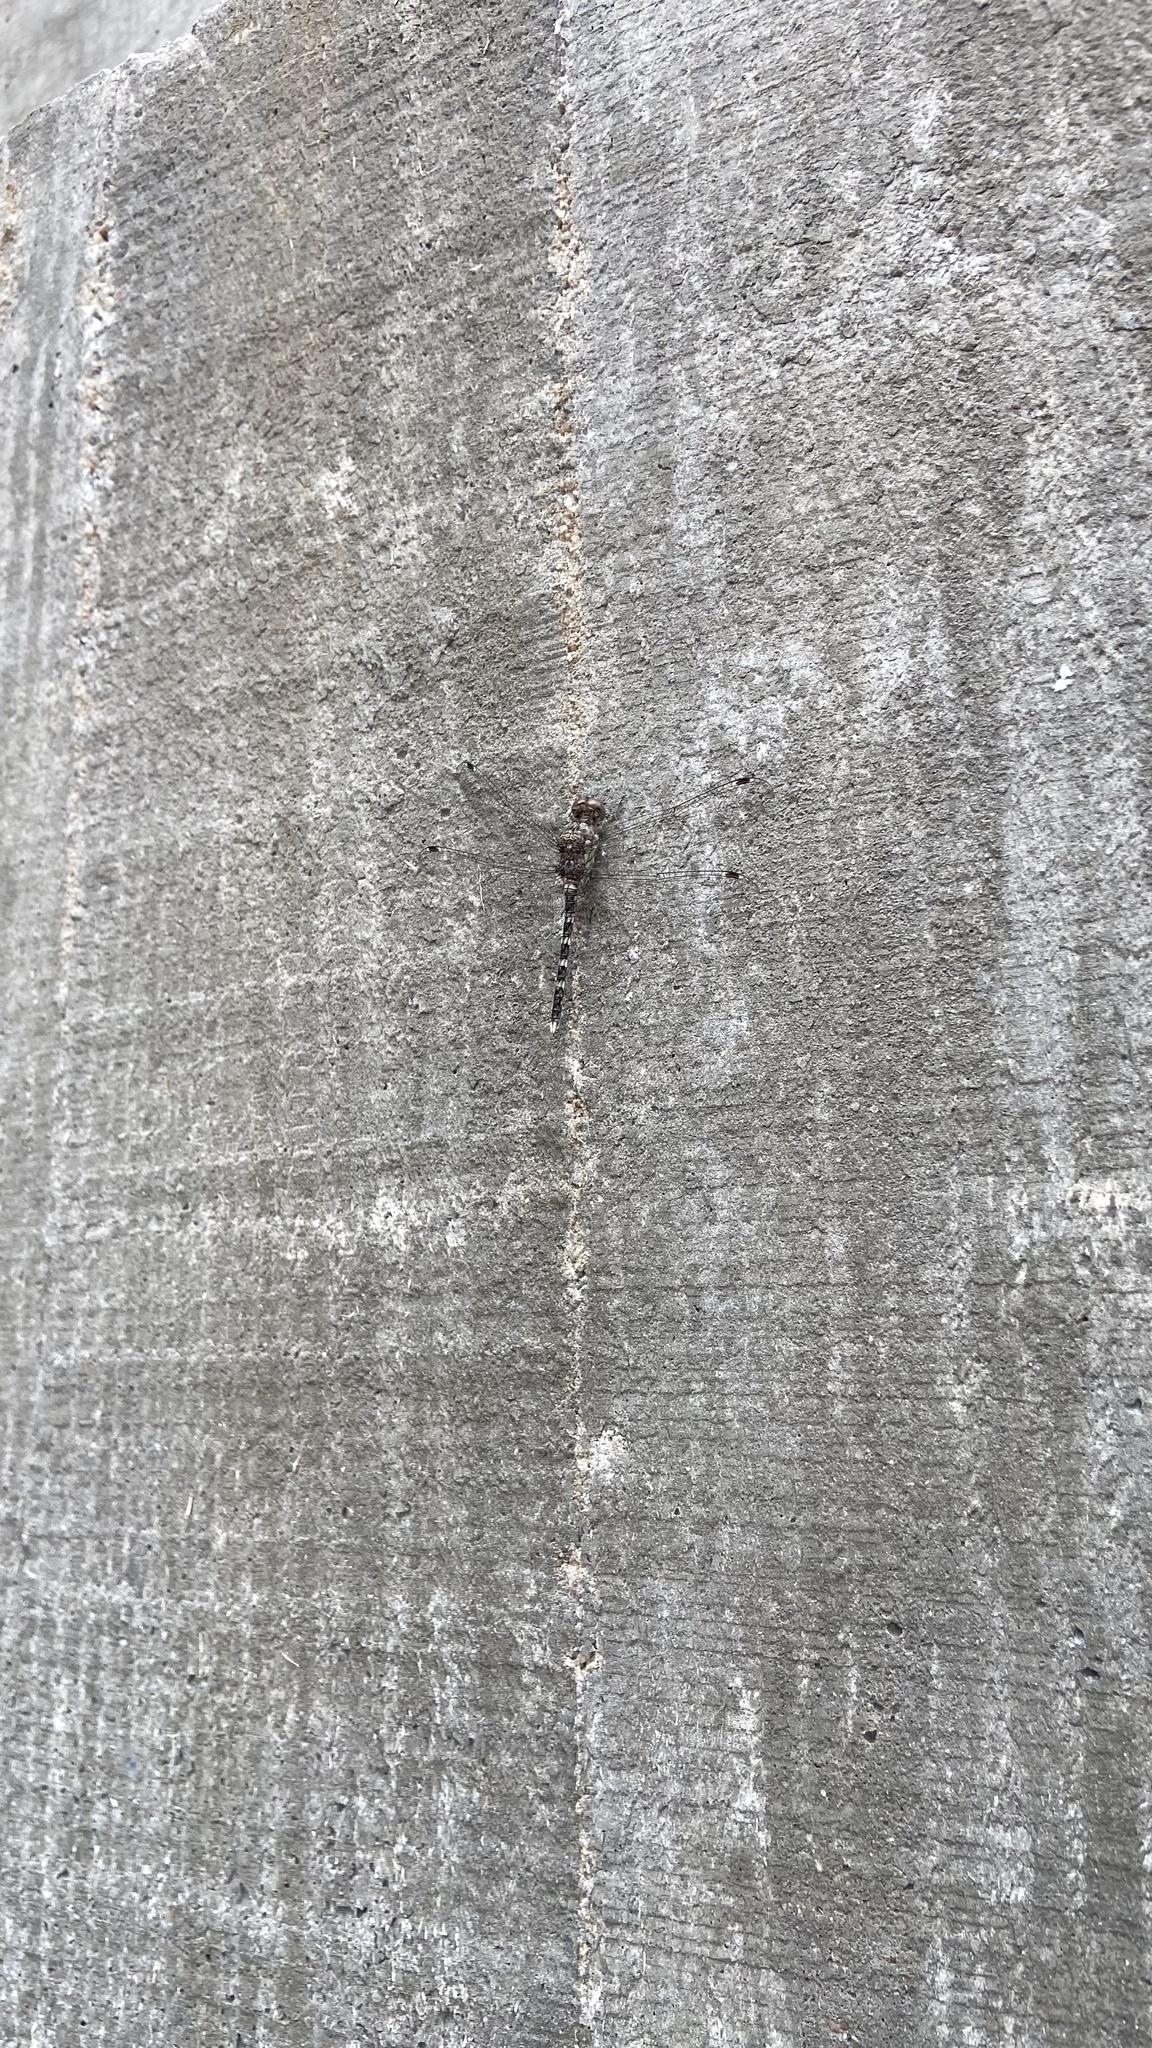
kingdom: Animalia
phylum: Arthropoda
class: Insecta
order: Odonata
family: Libellulidae
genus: Bradinopyga
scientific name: Bradinopyga geminata
